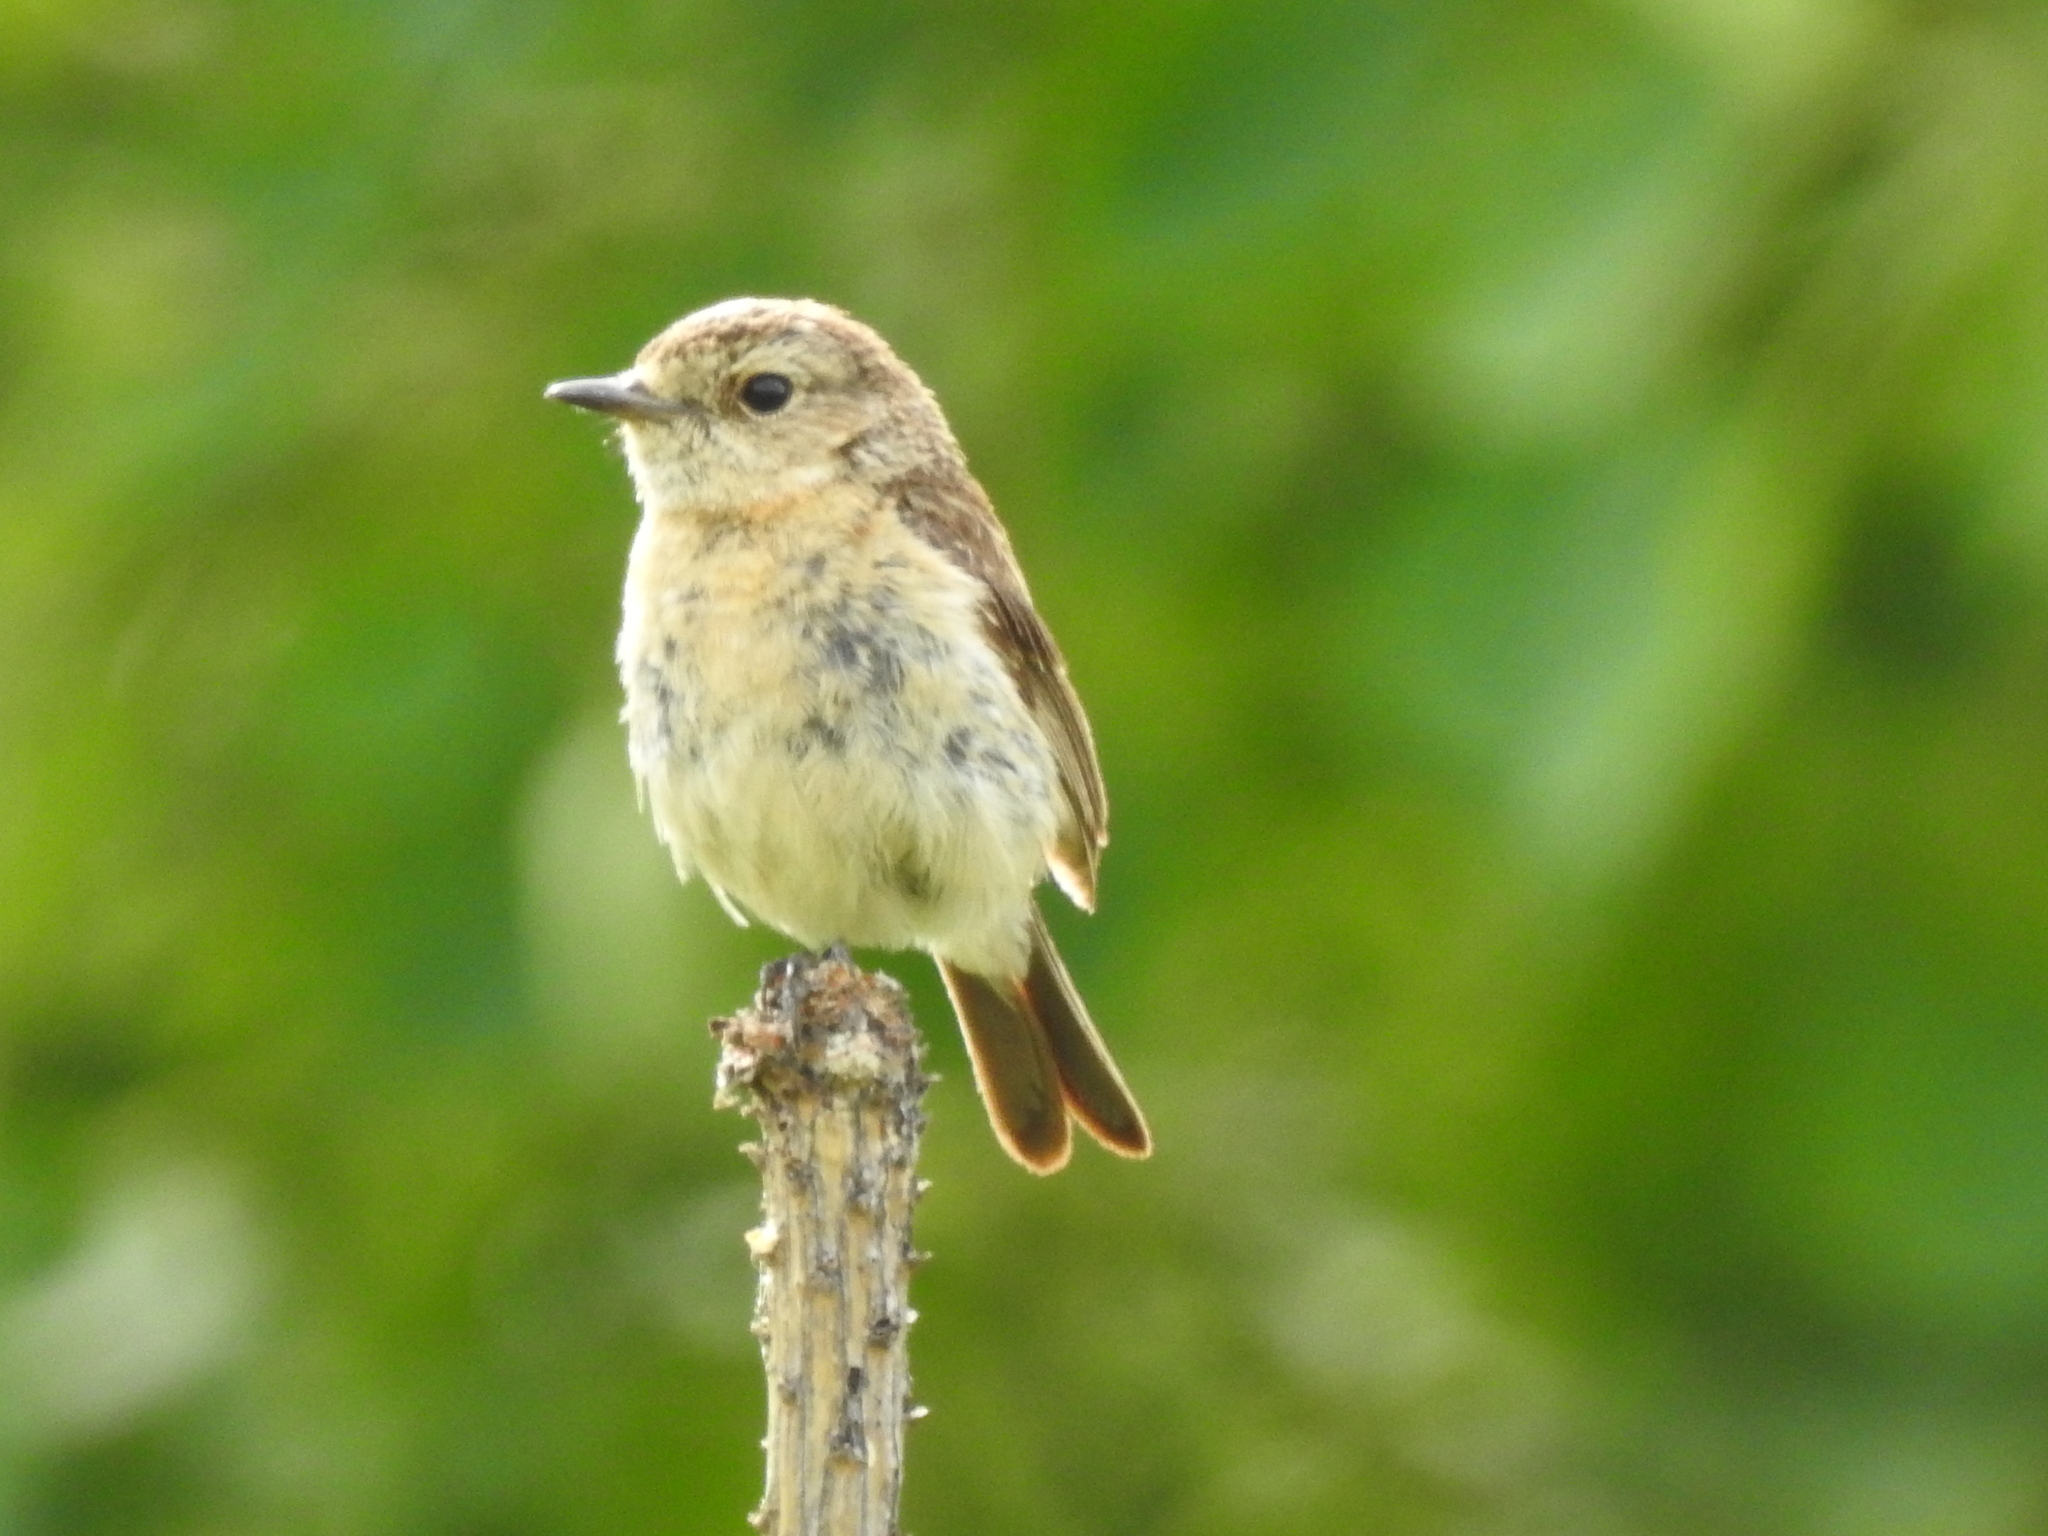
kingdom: Animalia
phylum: Chordata
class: Aves
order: Passeriformes
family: Muscicapidae
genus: Saxicola
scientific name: Saxicola maurus
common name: Siberian stonechat
